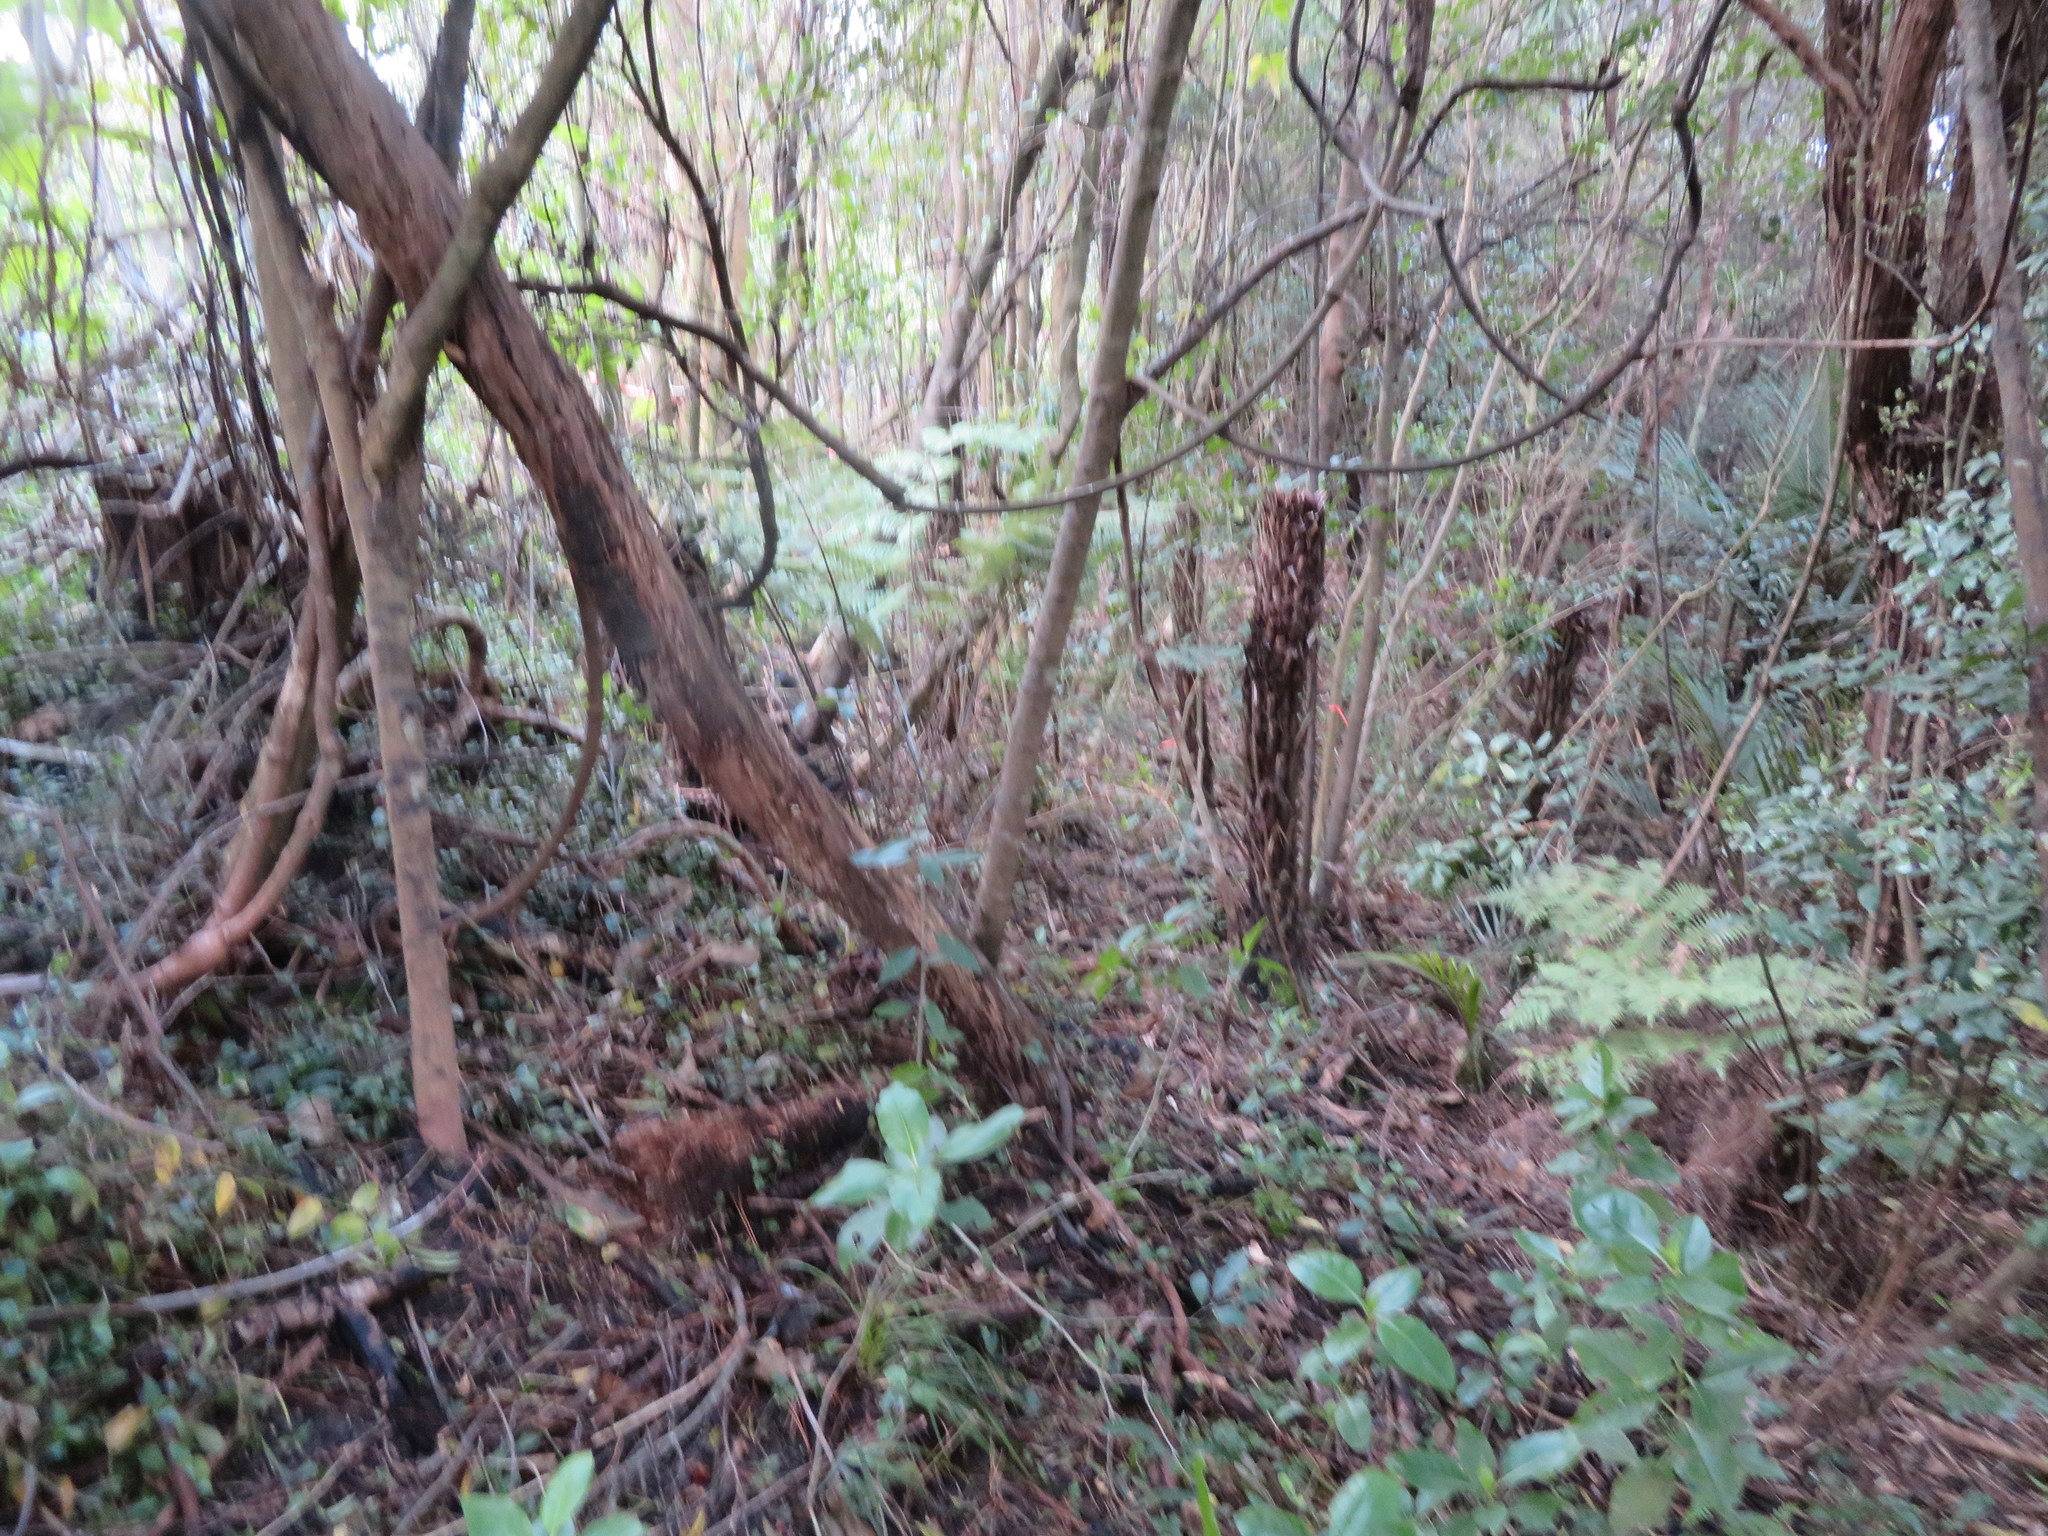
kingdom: Plantae
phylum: Tracheophyta
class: Polypodiopsida
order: Cyatheales
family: Cyatheaceae
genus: Alsophila
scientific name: Alsophila dealbata
